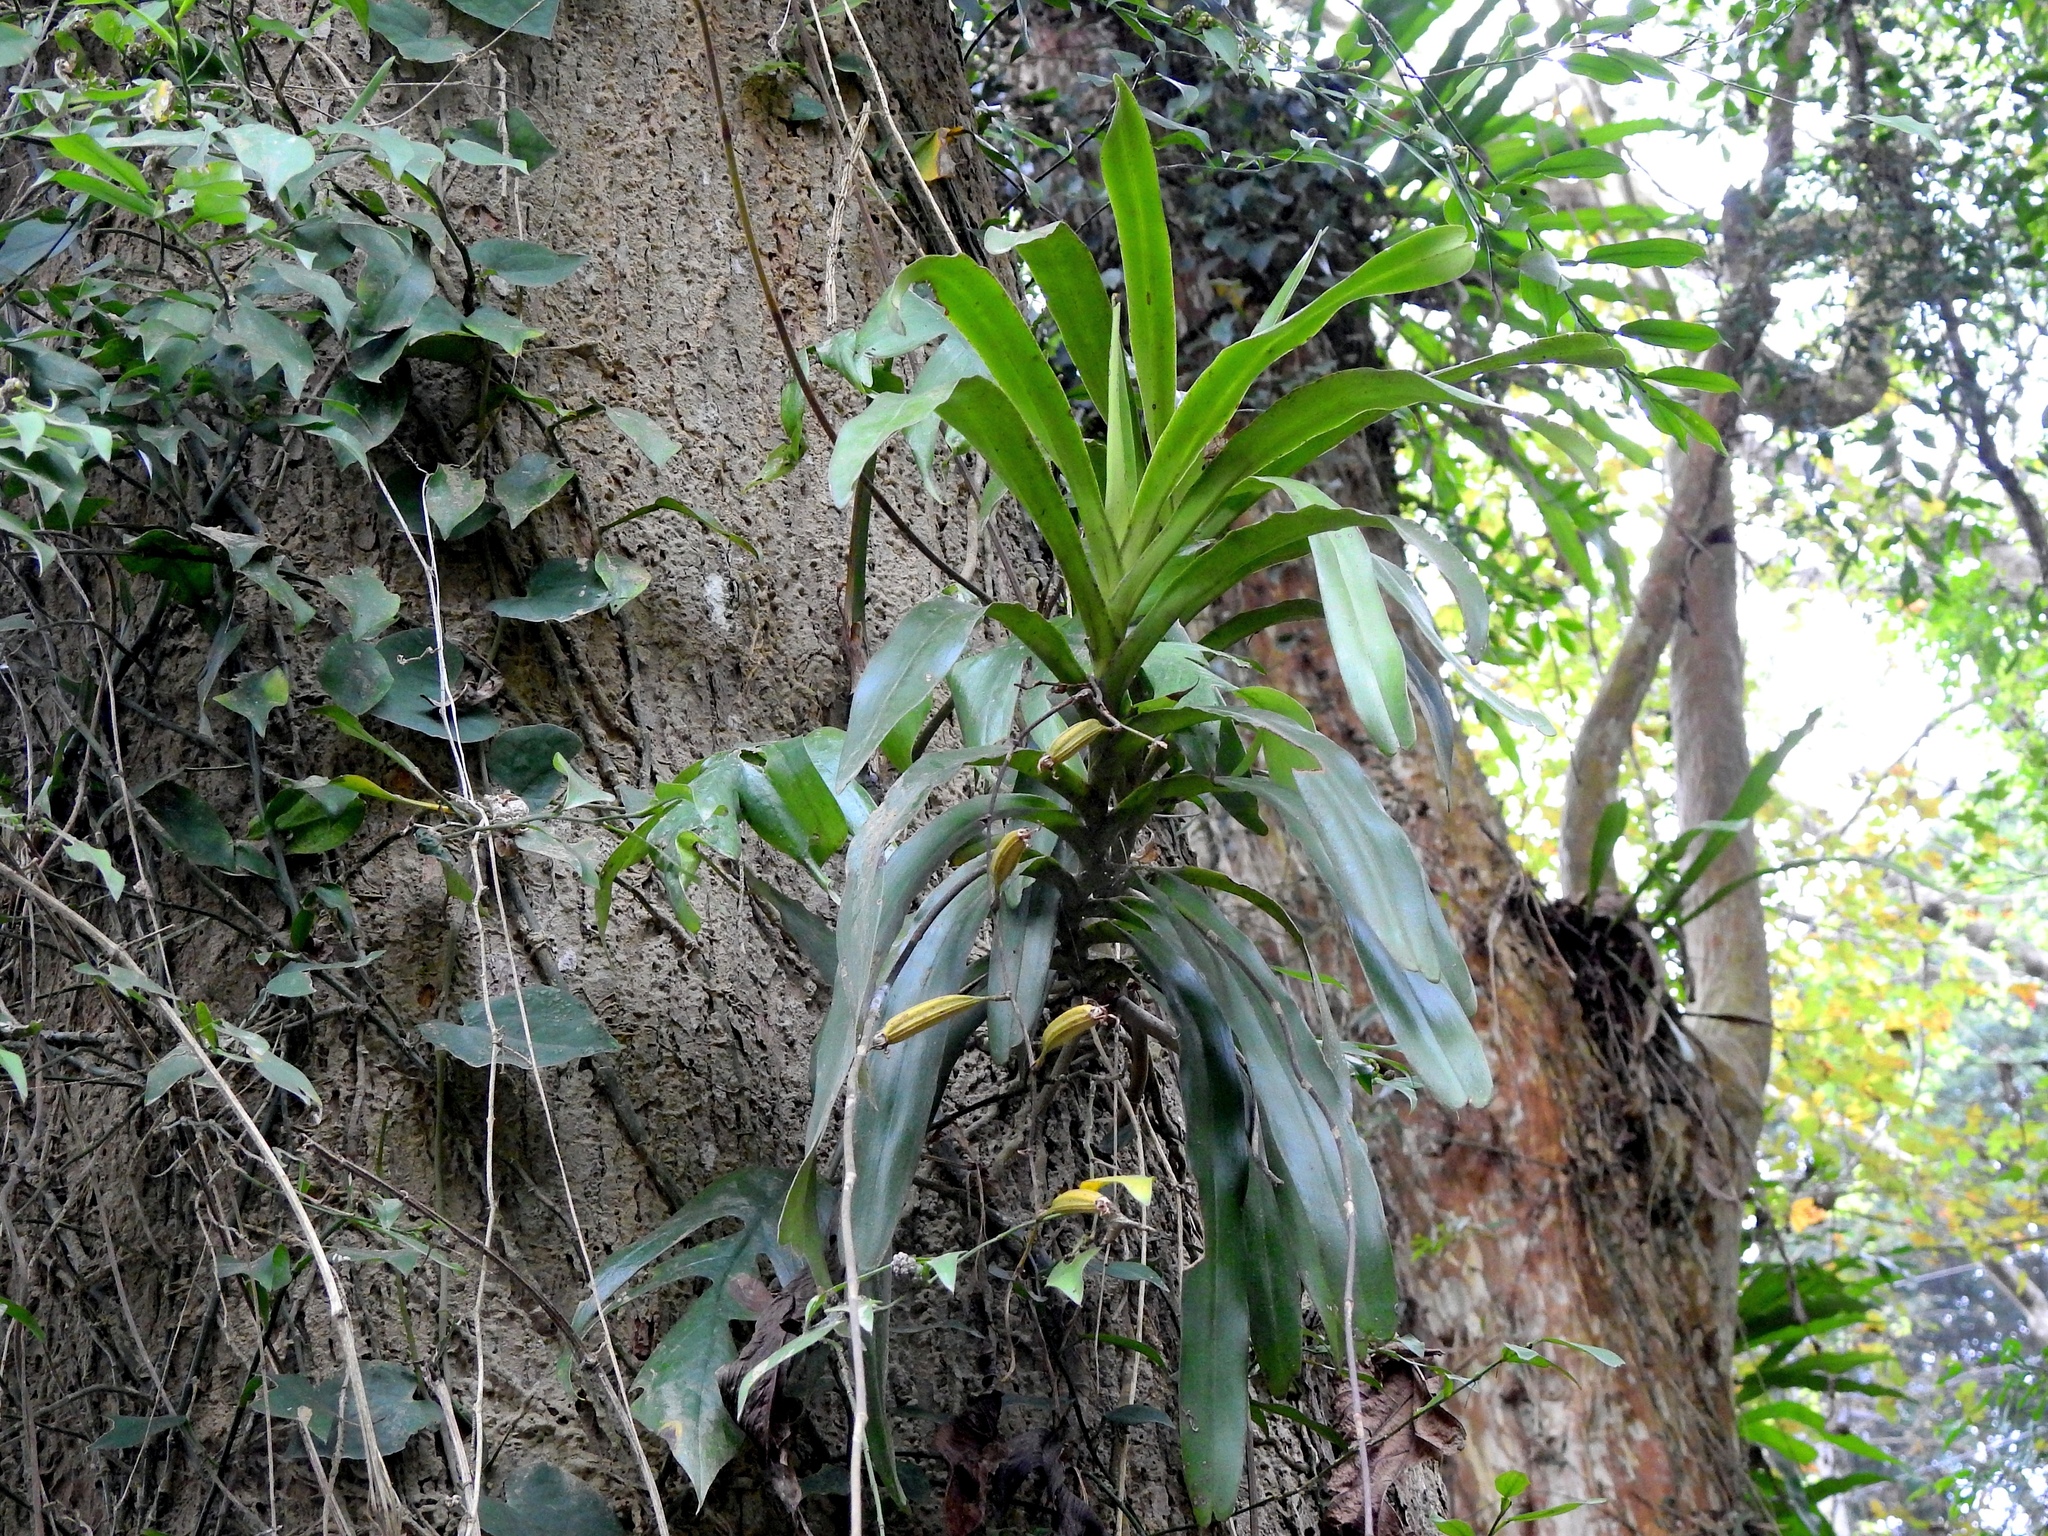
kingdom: Plantae
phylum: Tracheophyta
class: Liliopsida
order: Asparagales
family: Orchidaceae
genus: Arachnis
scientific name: Arachnis labrosa
